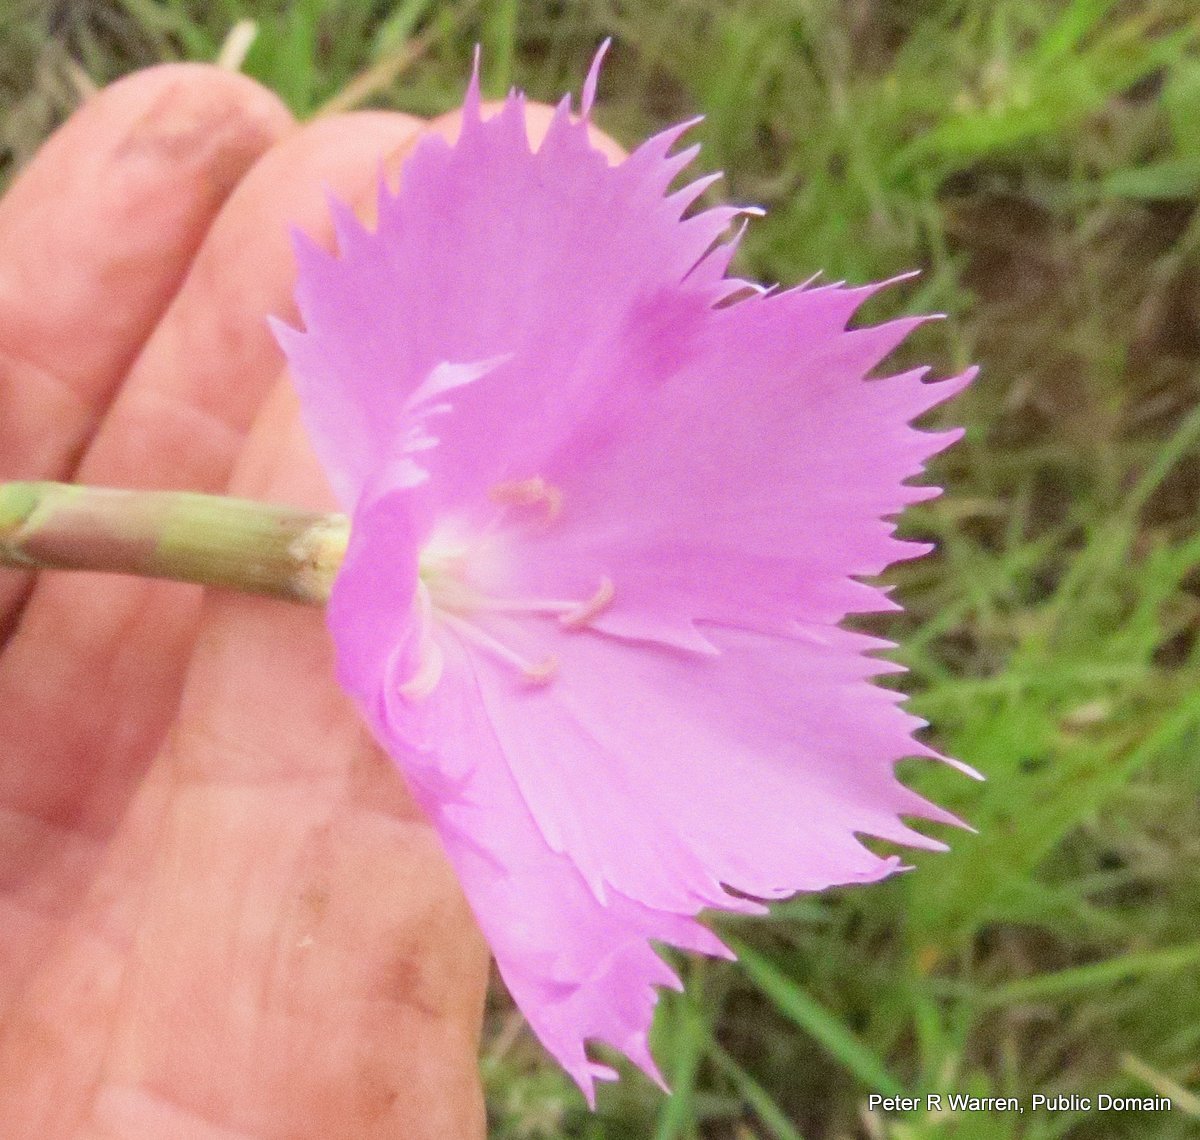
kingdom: Plantae
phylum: Tracheophyta
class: Magnoliopsida
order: Caryophyllales
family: Caryophyllaceae
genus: Dianthus
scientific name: Dianthus zeyheri
